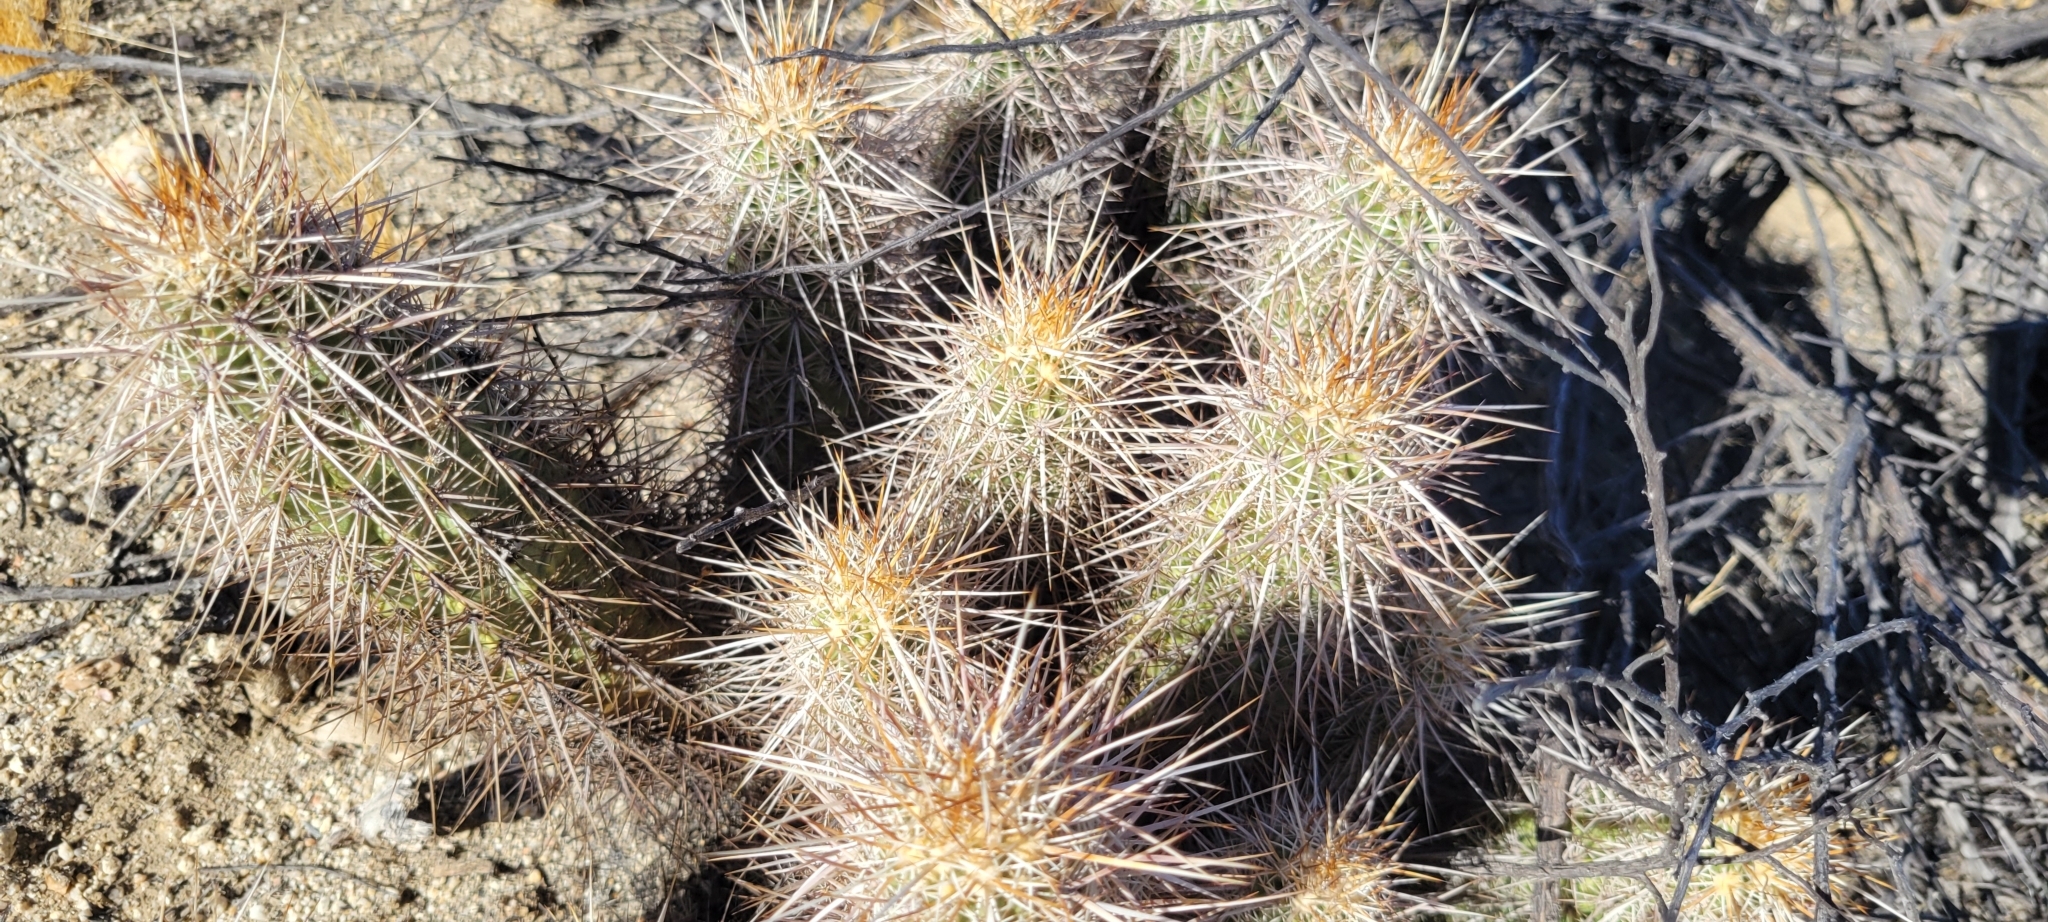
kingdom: Plantae
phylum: Tracheophyta
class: Magnoliopsida
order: Caryophyllales
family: Cactaceae
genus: Echinocereus
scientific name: Echinocereus engelmannii
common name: Engelmann's hedgehog cactus
